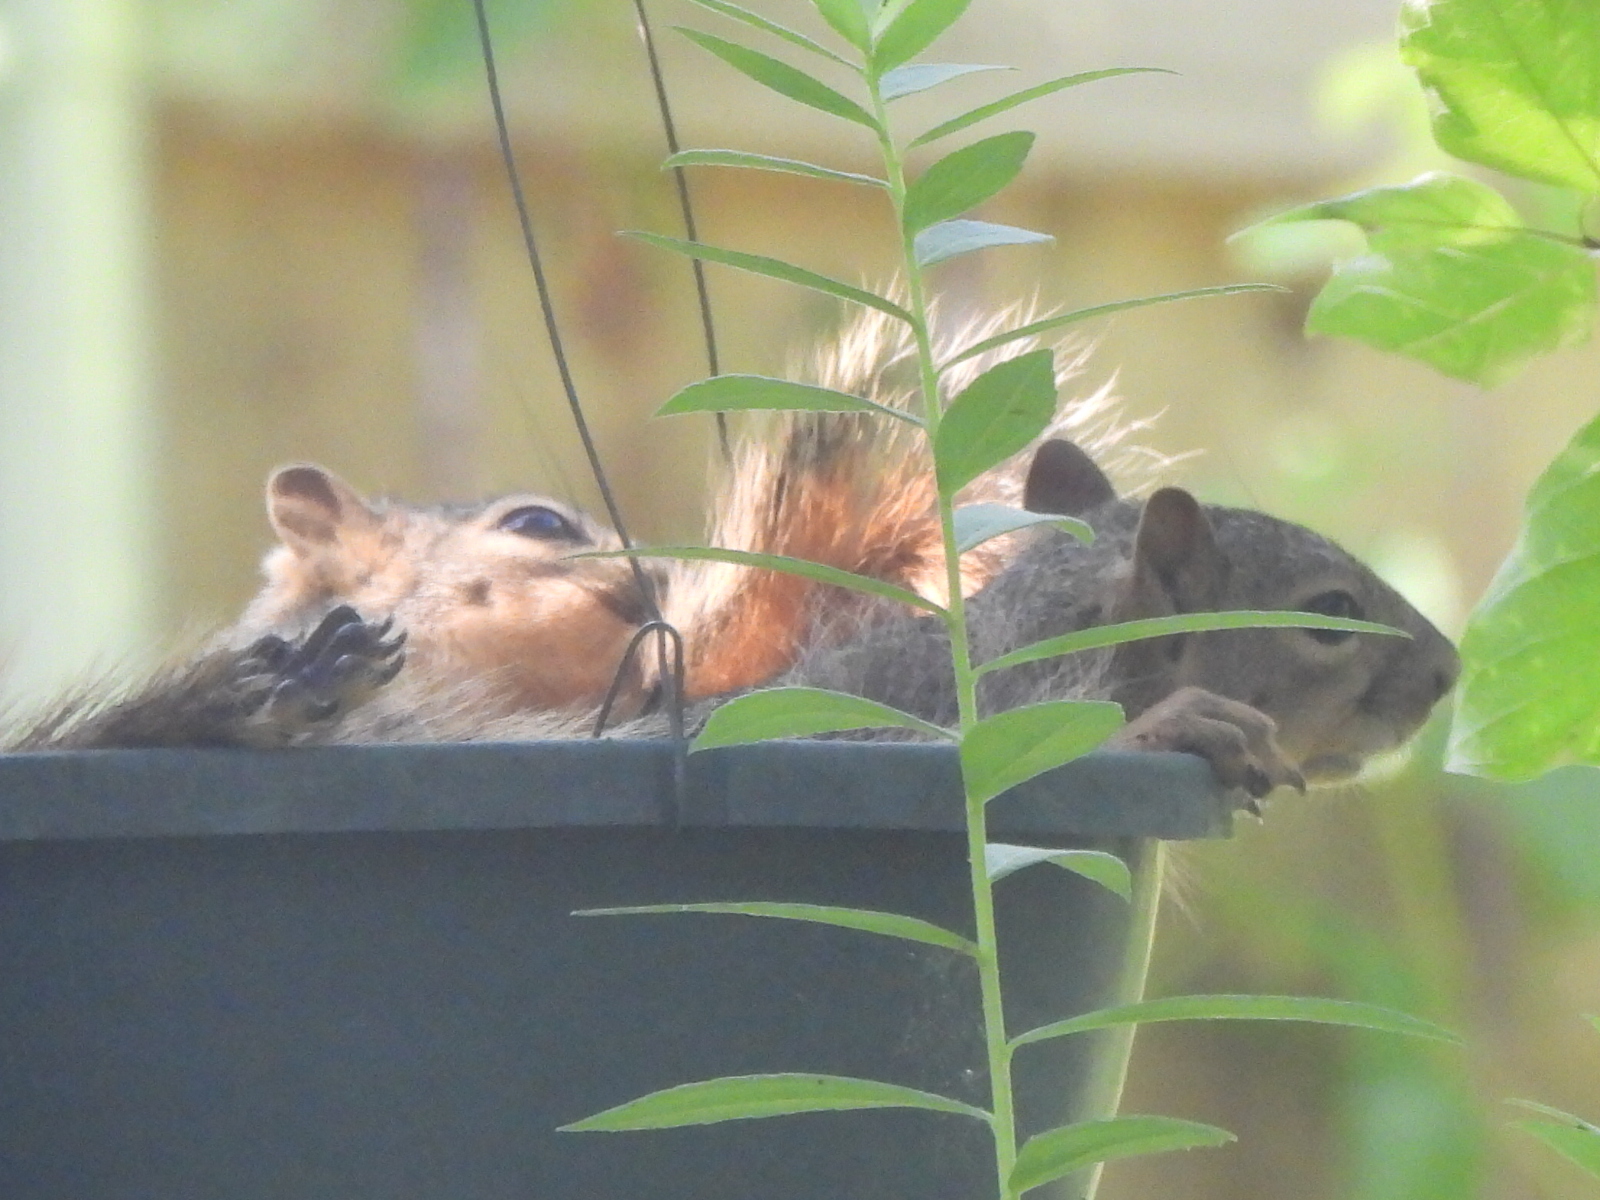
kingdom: Animalia
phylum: Chordata
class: Mammalia
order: Rodentia
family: Sciuridae
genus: Sciurus
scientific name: Sciurus niger
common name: Fox squirrel
